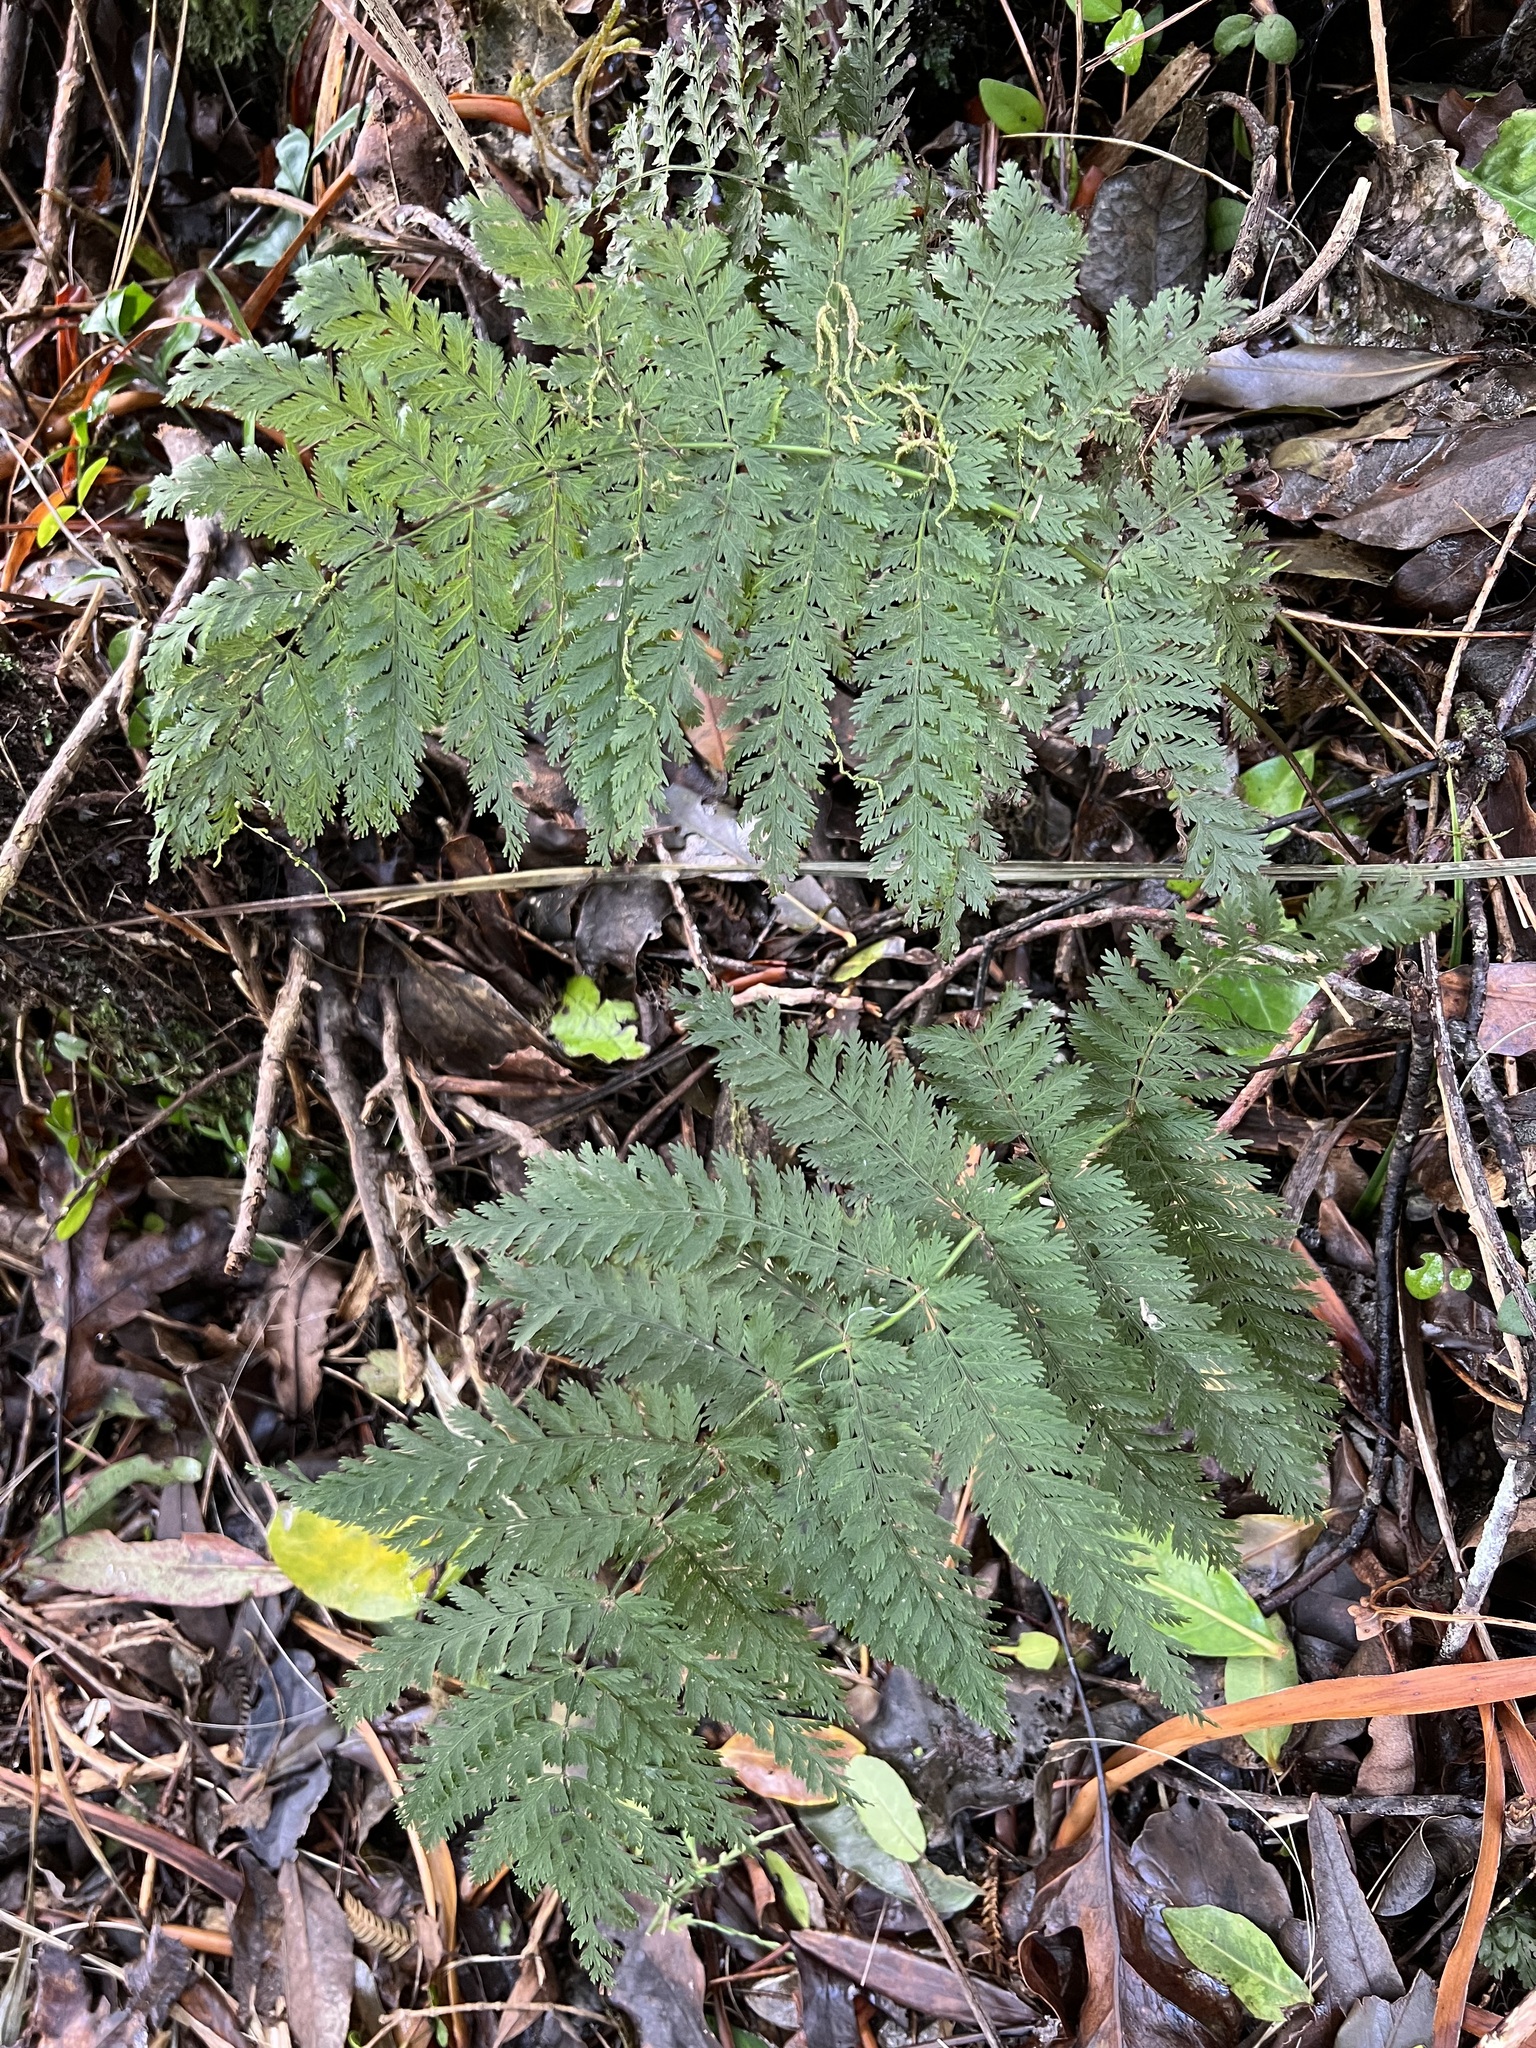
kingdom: Plantae
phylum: Tracheophyta
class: Polypodiopsida
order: Osmundales
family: Osmundaceae
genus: Leptopteris
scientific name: Leptopteris hymenophylloides
